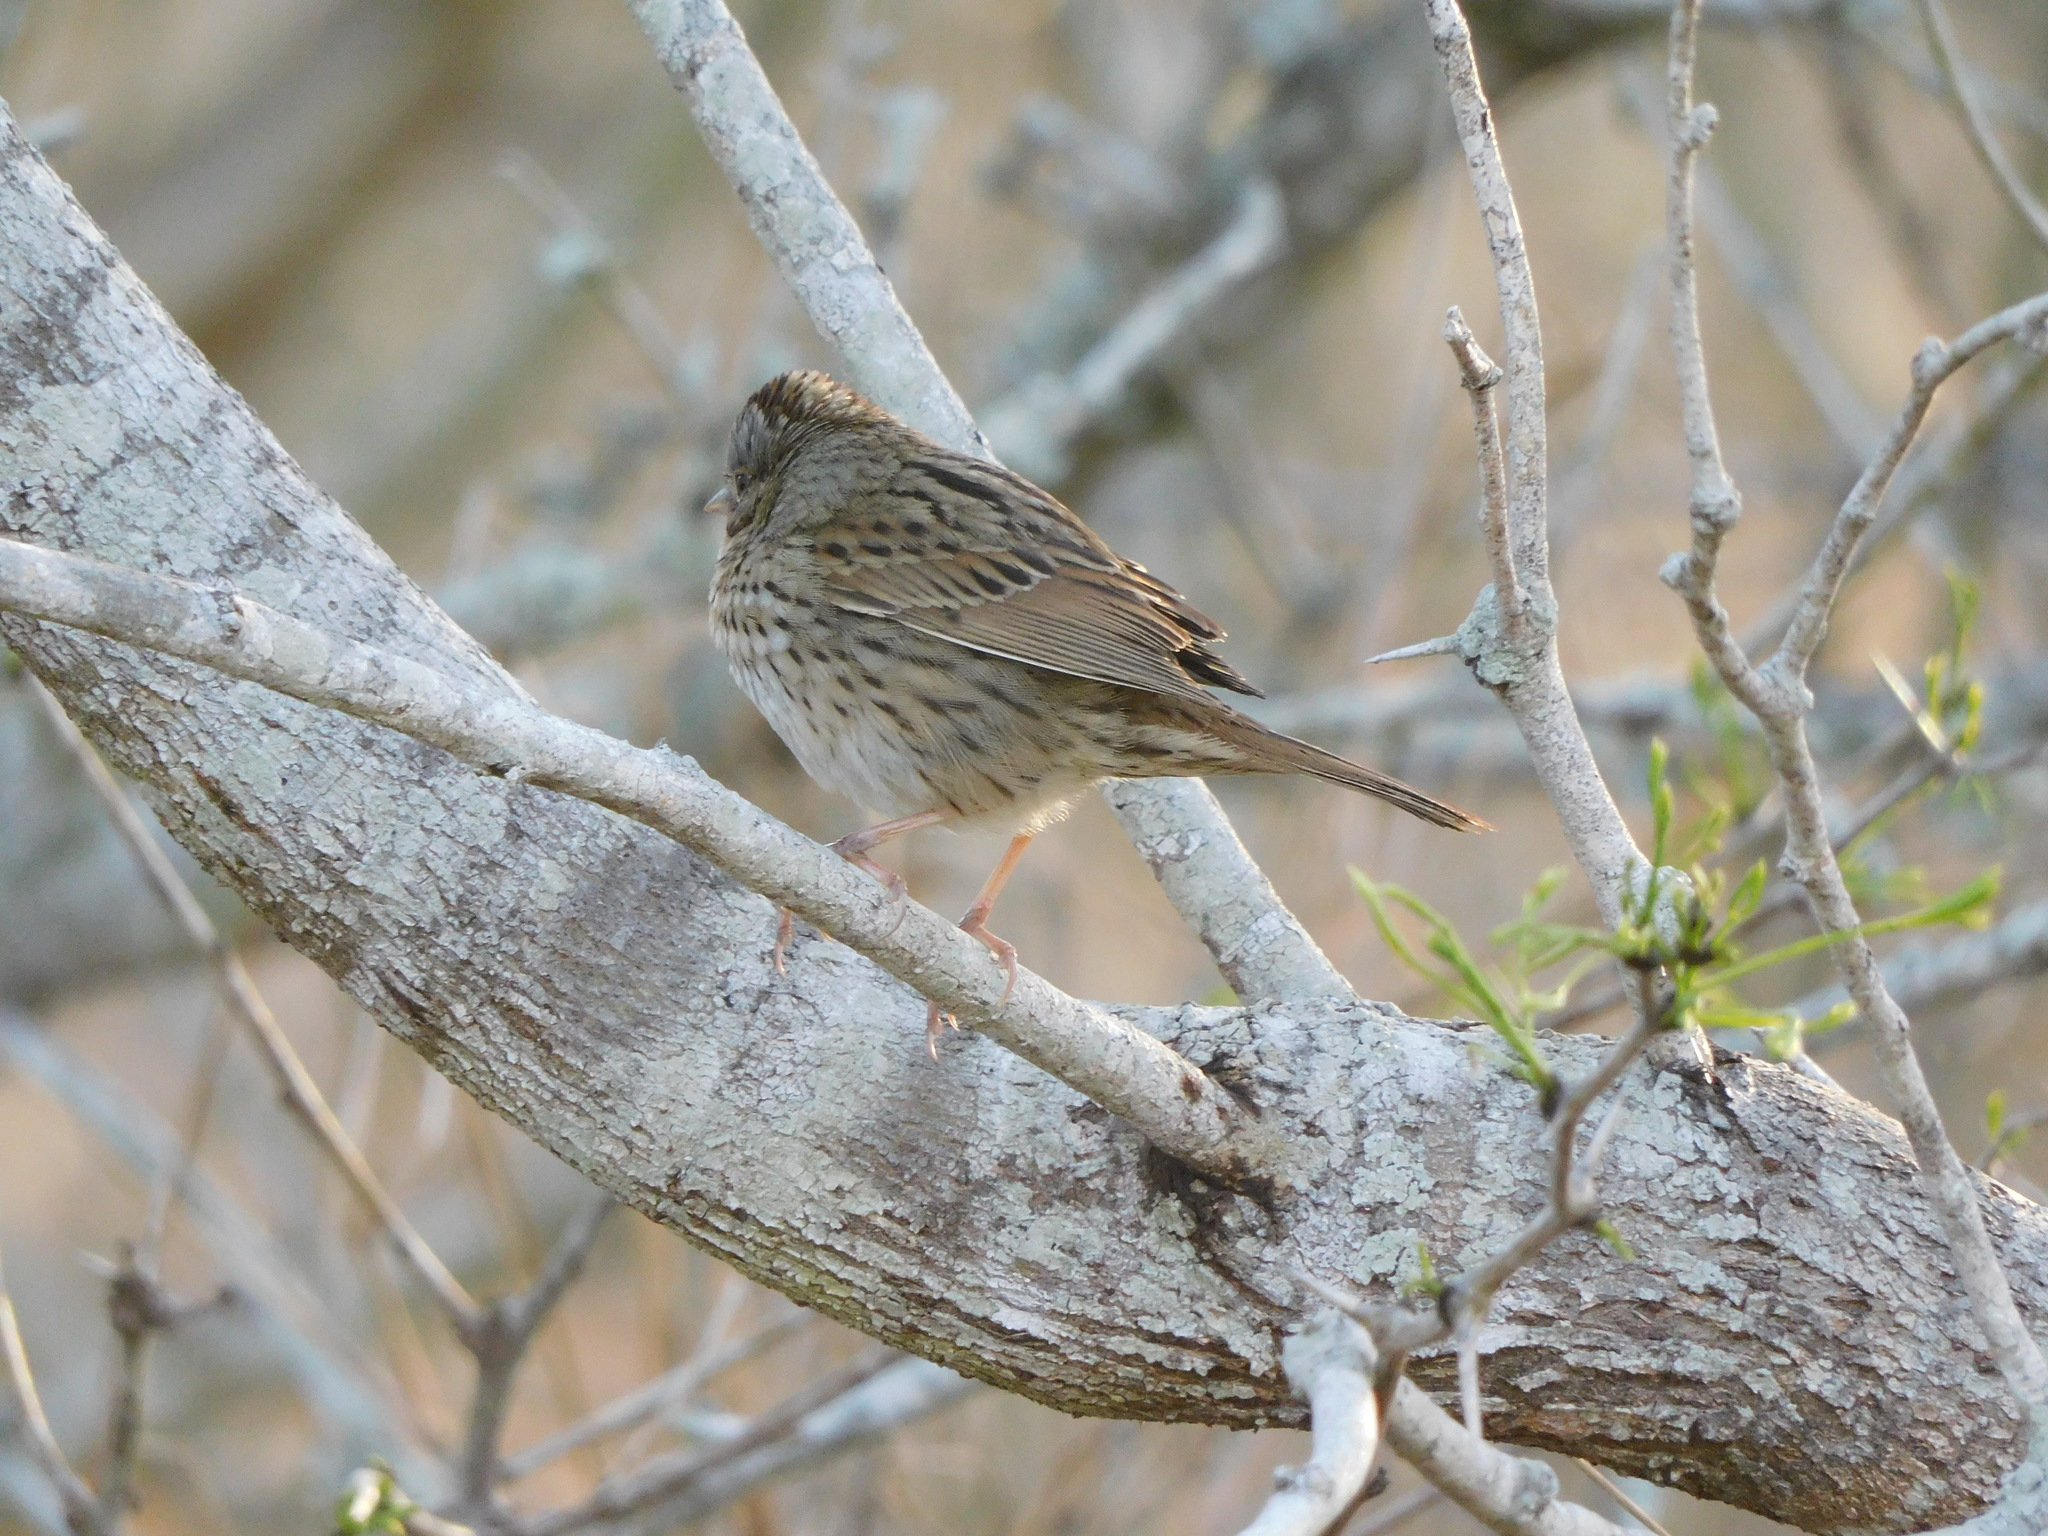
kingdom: Animalia
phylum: Chordata
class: Aves
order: Passeriformes
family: Passerellidae
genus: Melospiza
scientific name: Melospiza lincolnii
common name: Lincoln's sparrow
